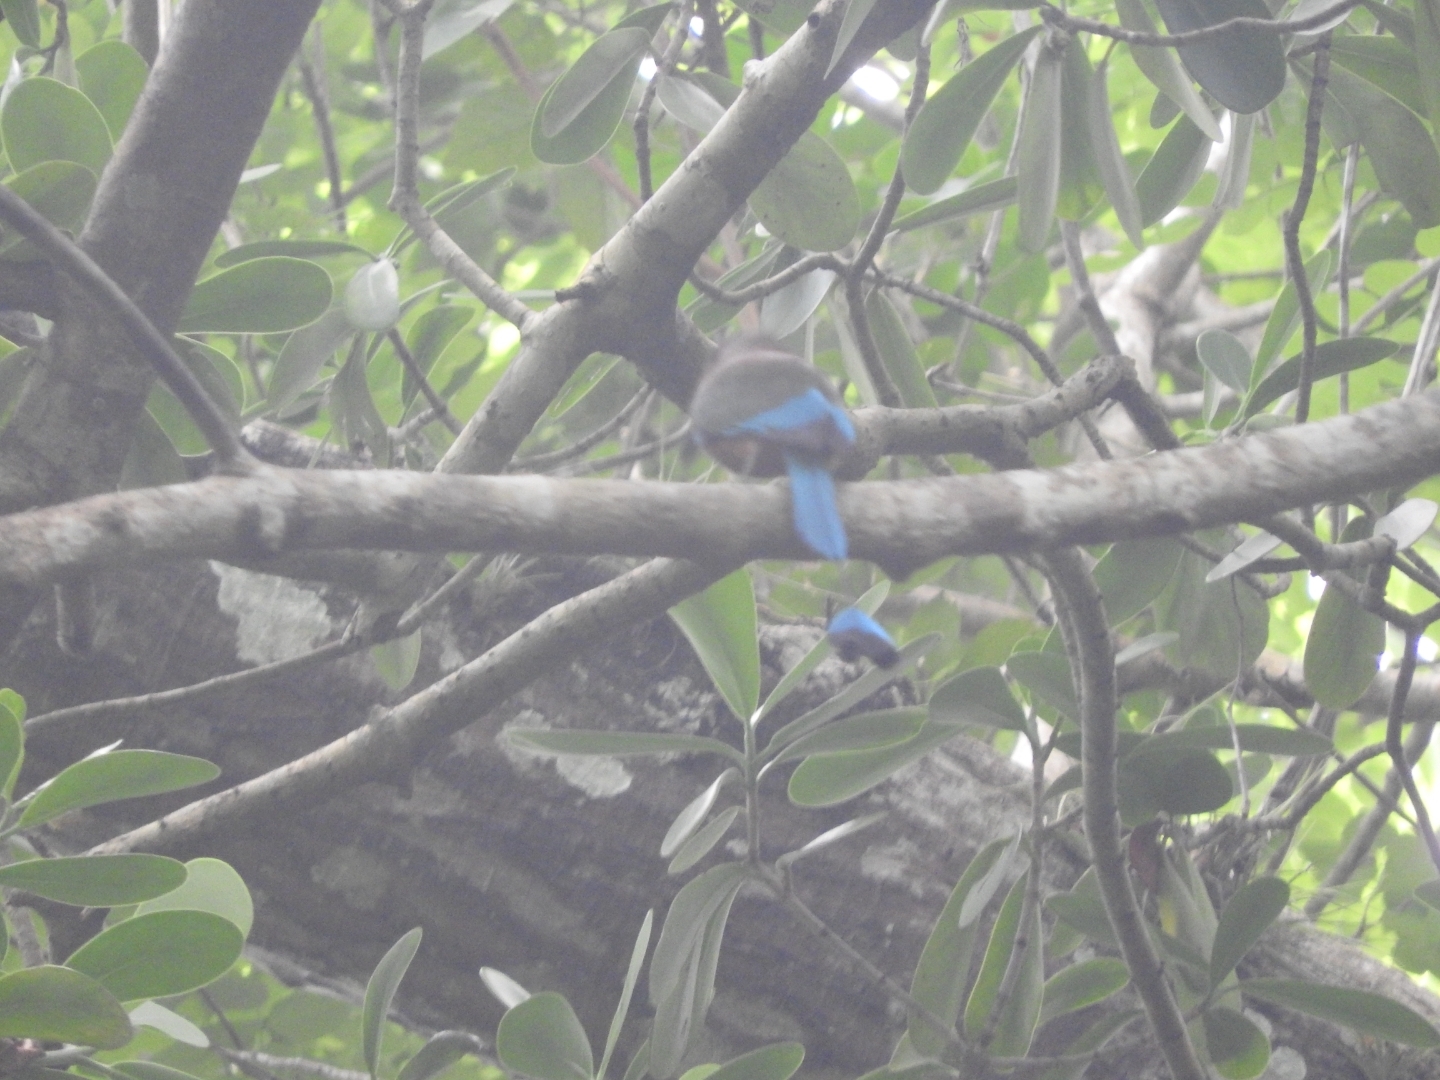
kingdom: Animalia
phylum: Chordata
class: Aves
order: Coraciiformes
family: Momotidae
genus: Eumomota
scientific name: Eumomota superciliosa
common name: Turquoise-browed motmot
